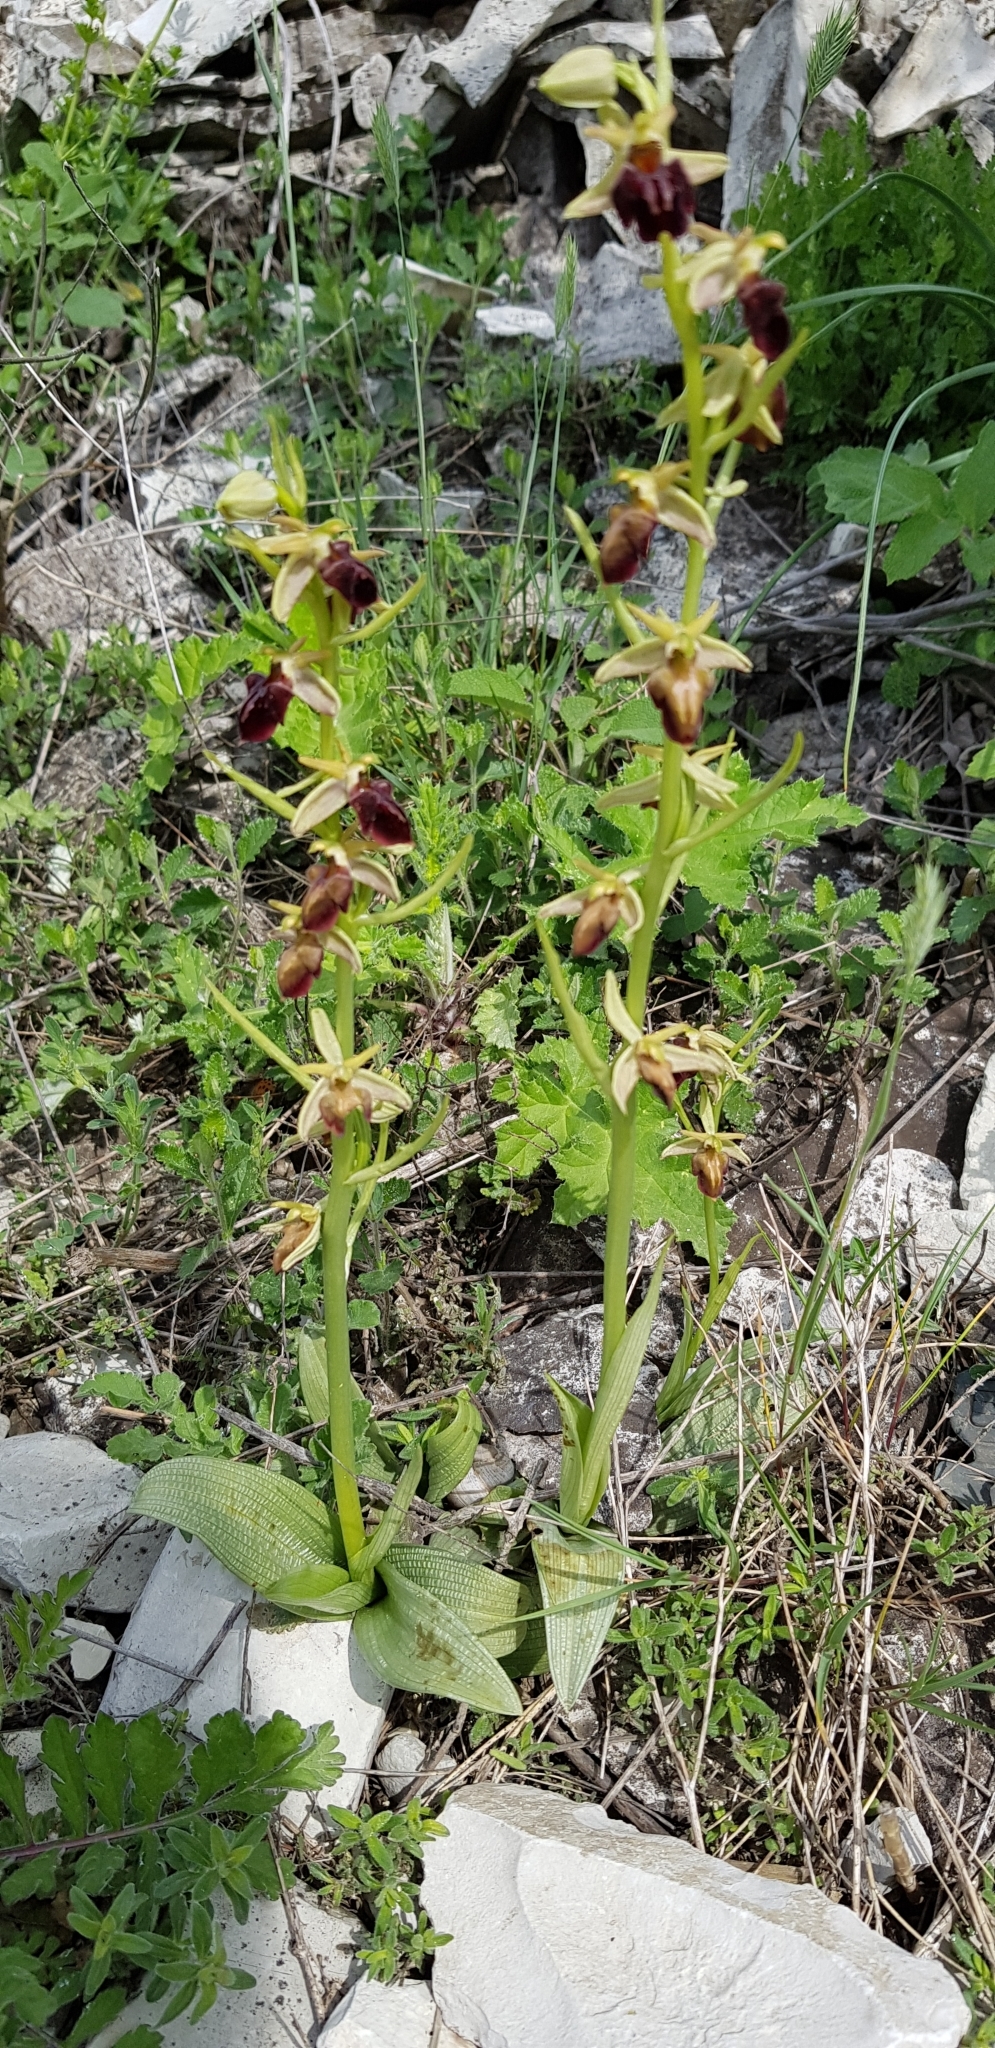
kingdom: Plantae
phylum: Tracheophyta
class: Liliopsida
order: Asparagales
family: Orchidaceae
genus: Ophrys
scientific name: Ophrys sphegodes
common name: Early spider-orchid
